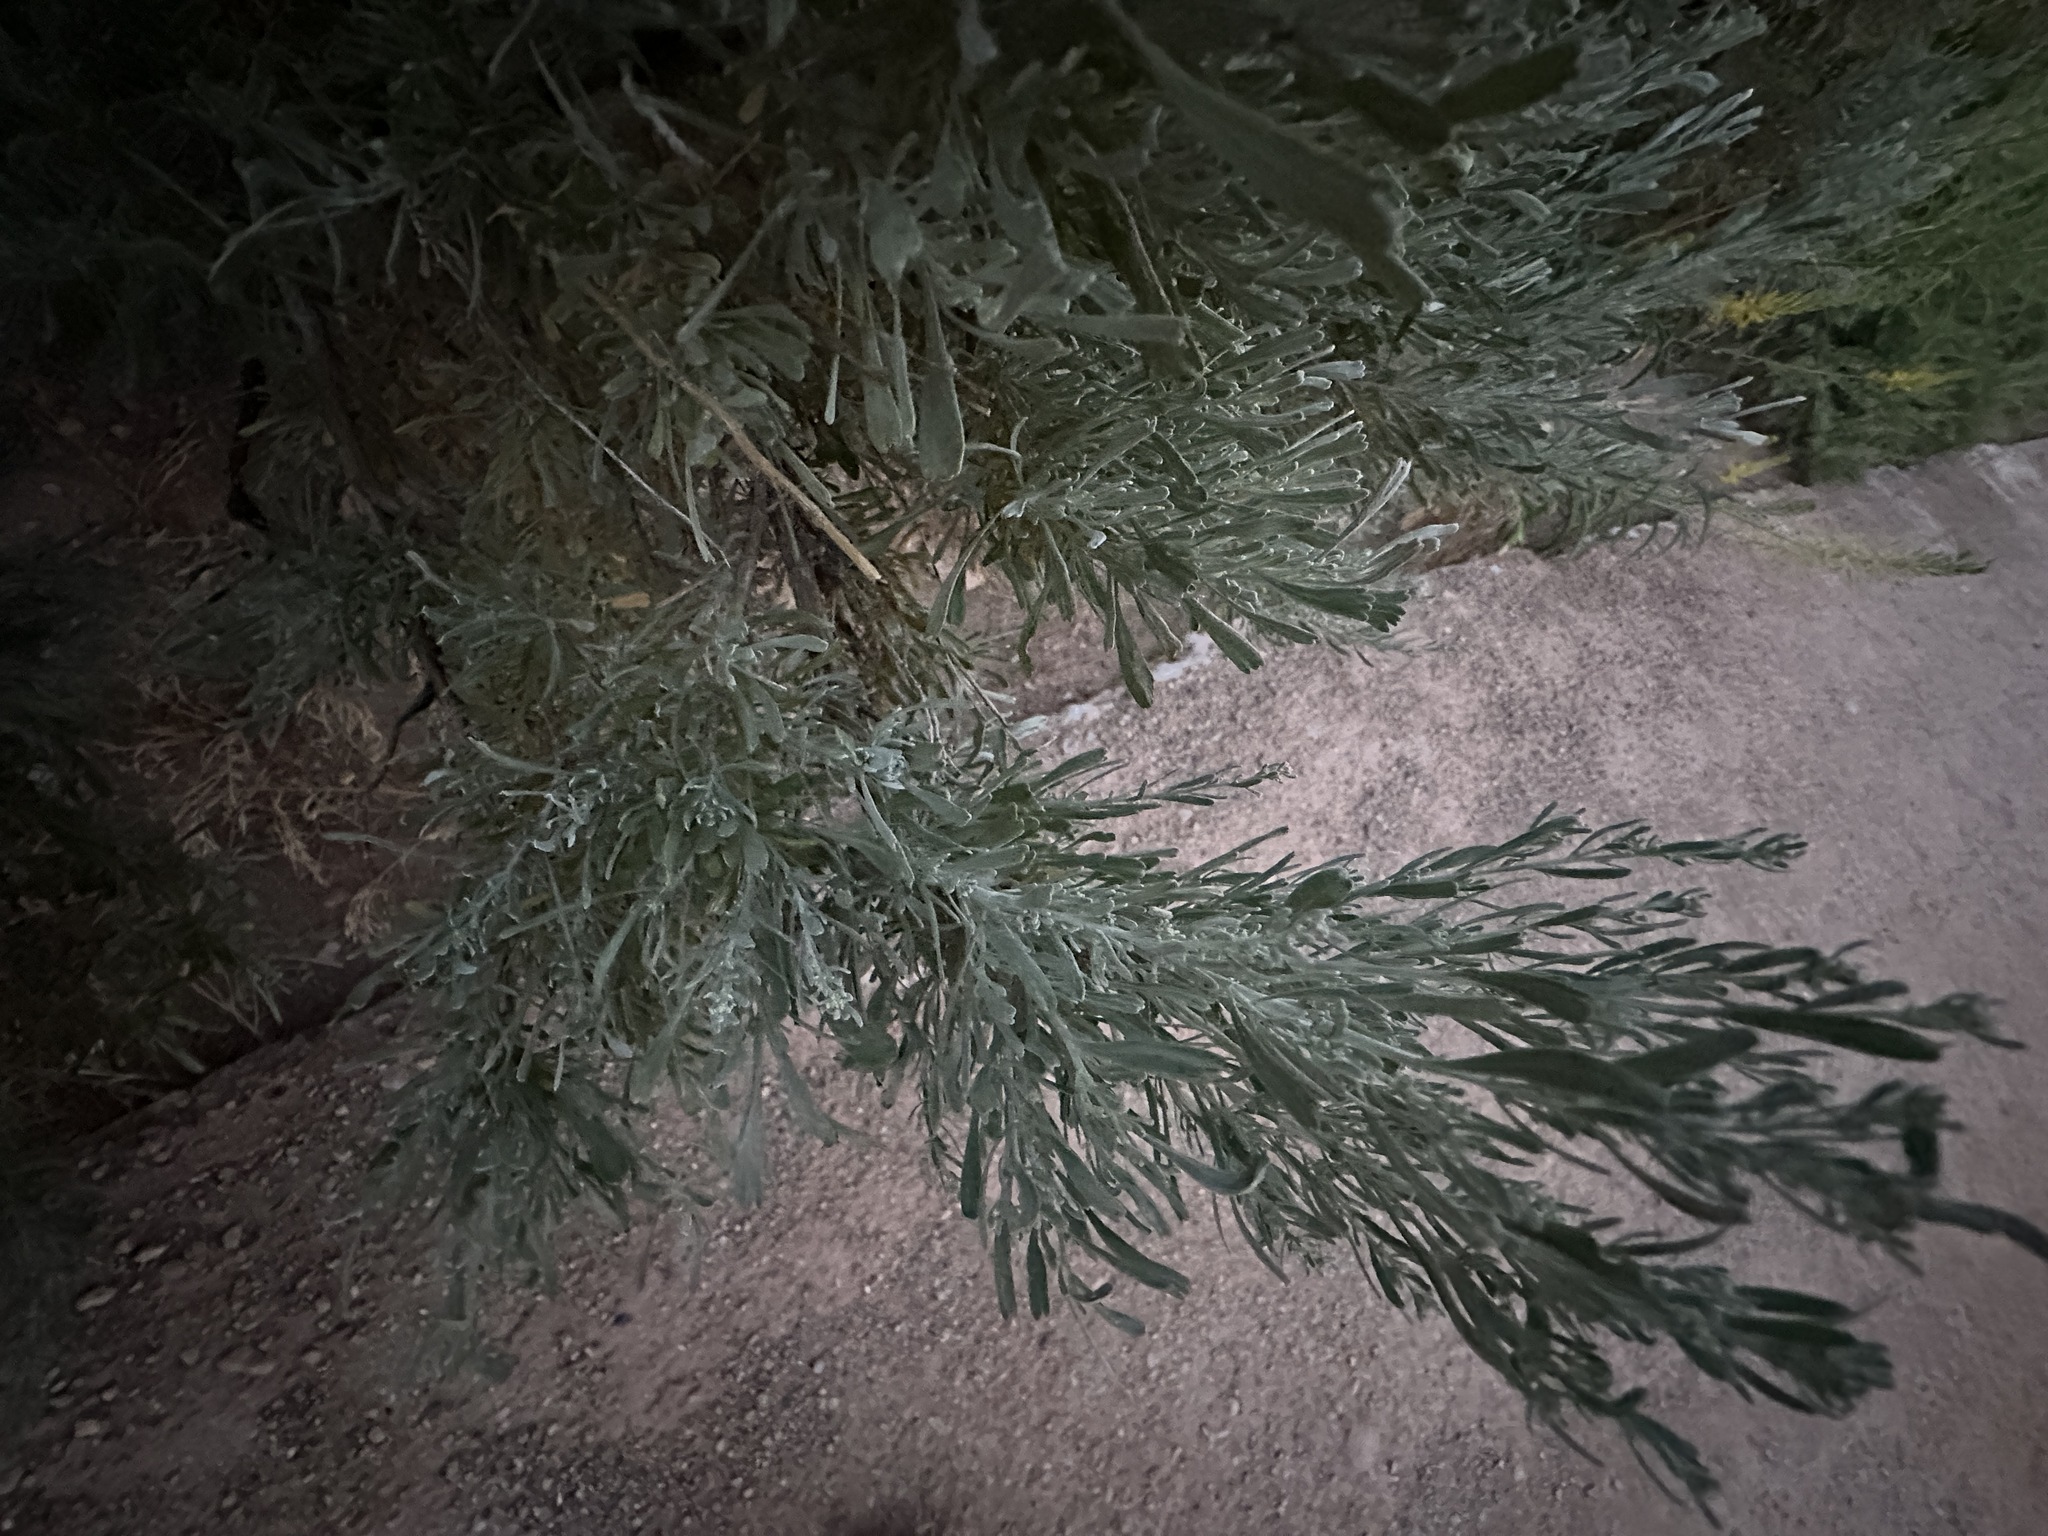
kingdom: Plantae
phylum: Tracheophyta
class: Magnoliopsida
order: Asterales
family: Asteraceae
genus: Artemisia
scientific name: Artemisia tridentata
